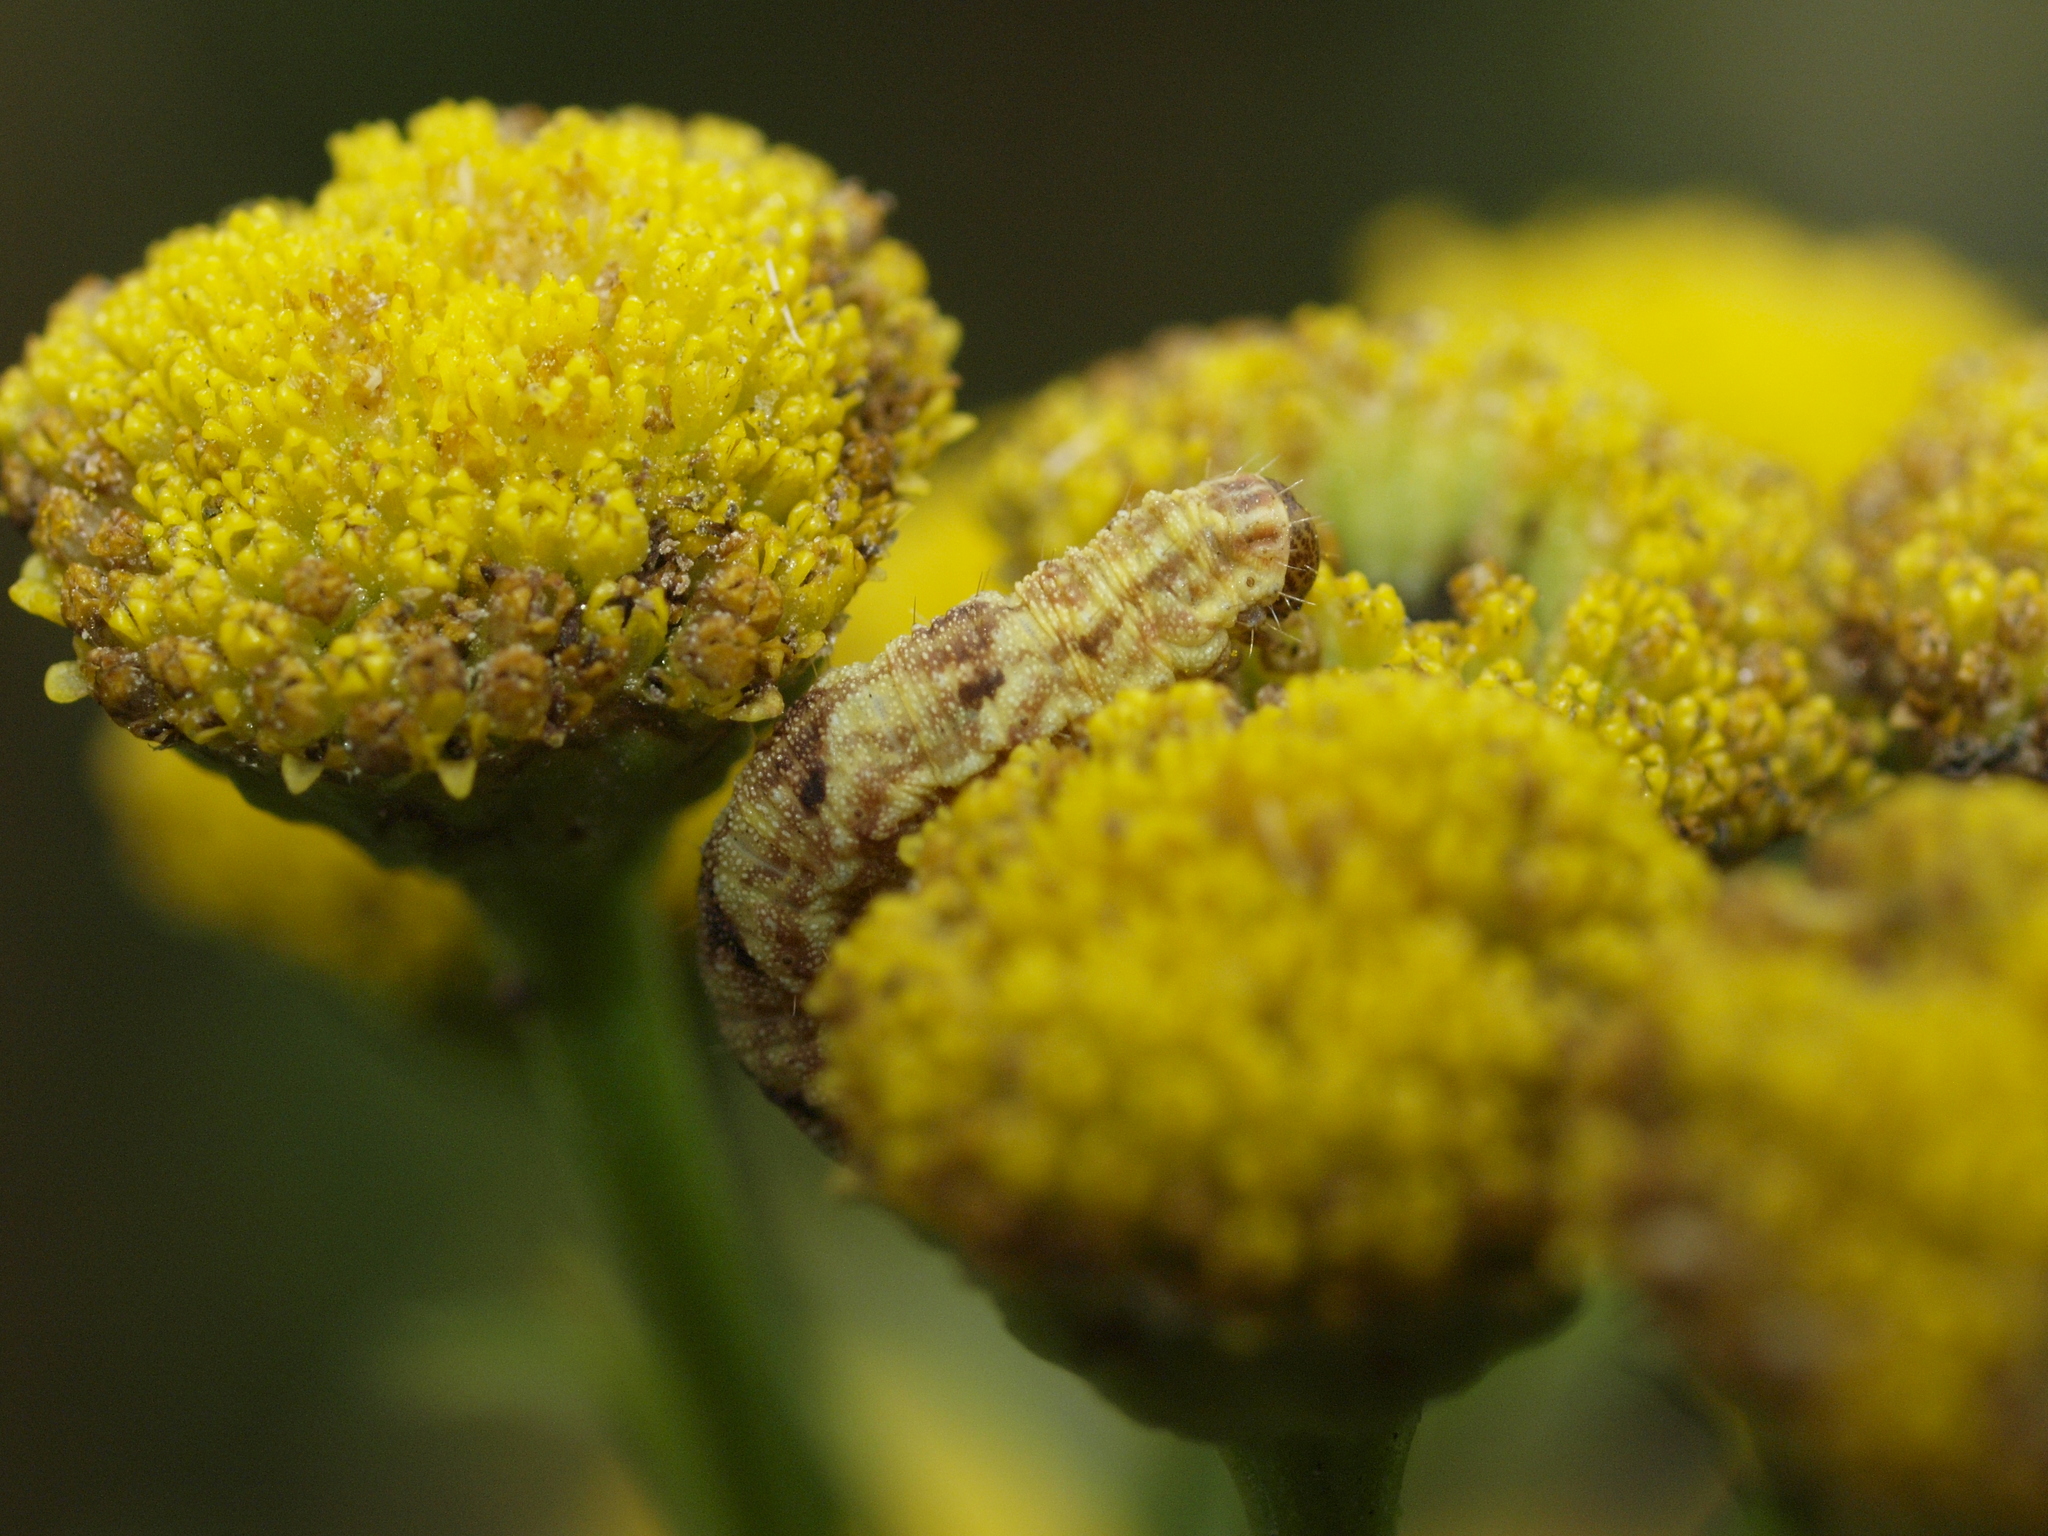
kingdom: Animalia
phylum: Arthropoda
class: Insecta
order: Lepidoptera
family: Geometridae
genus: Eupithecia
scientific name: Eupithecia absinthiata
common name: Wormwood pug
